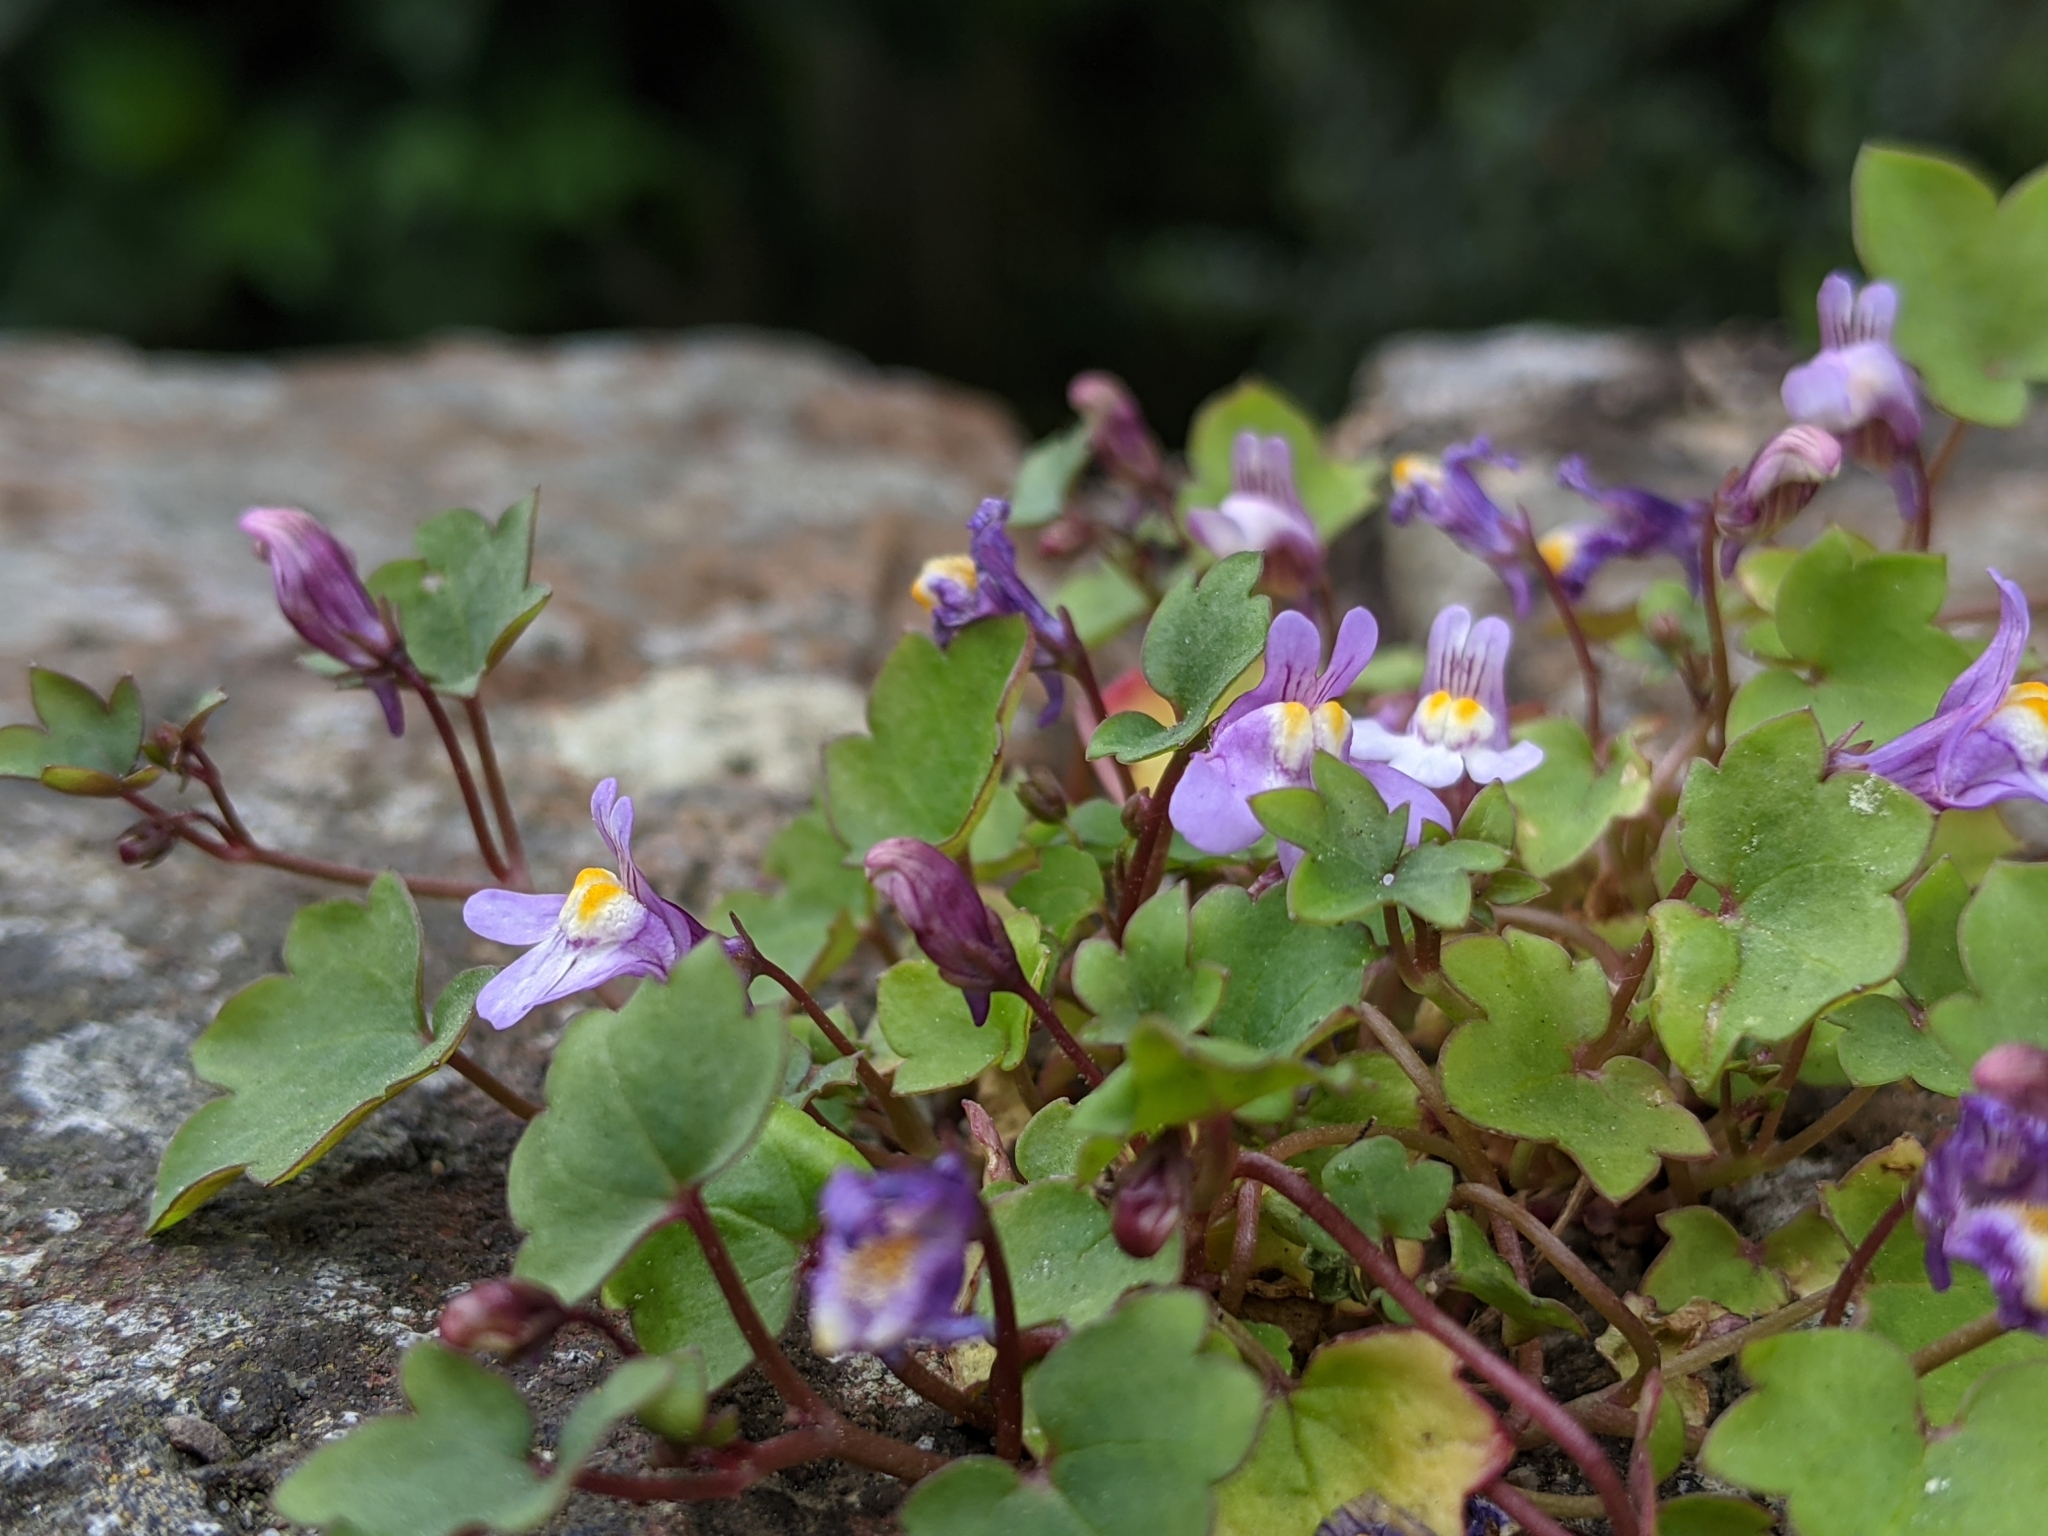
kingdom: Plantae
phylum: Tracheophyta
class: Magnoliopsida
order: Lamiales
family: Plantaginaceae
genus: Cymbalaria
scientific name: Cymbalaria muralis
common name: Ivy-leaved toadflax
